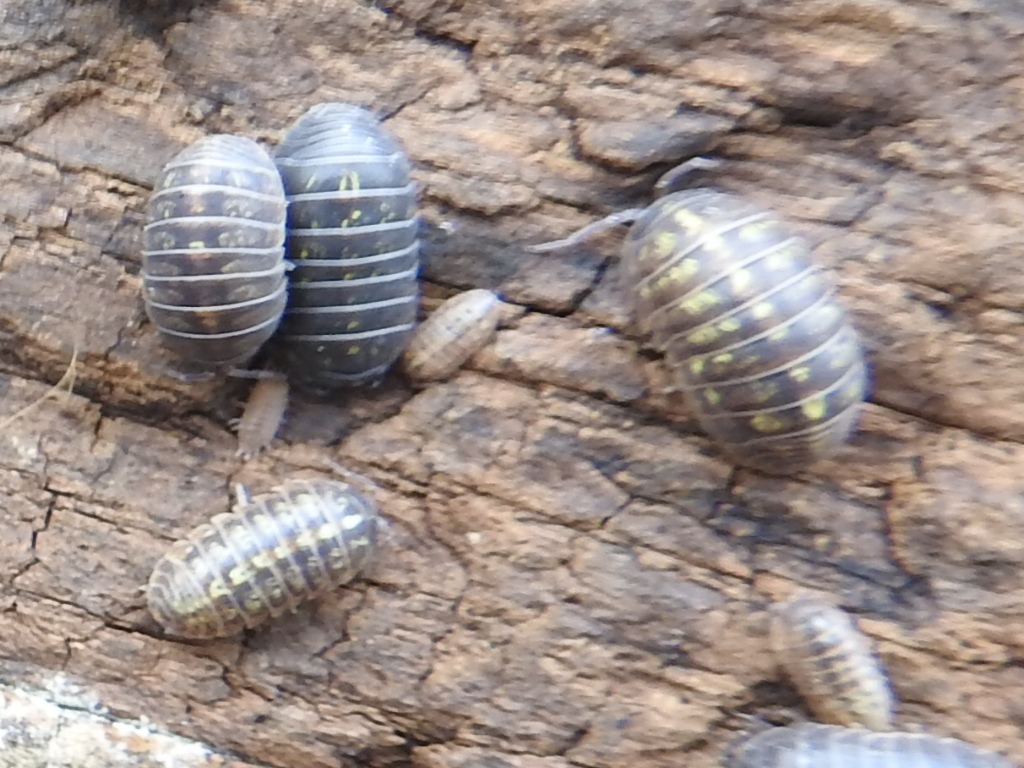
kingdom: Animalia
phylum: Arthropoda
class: Malacostraca
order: Isopoda
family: Armadillidiidae
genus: Armadillidium
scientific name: Armadillidium vulgare
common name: Common pill woodlouse
